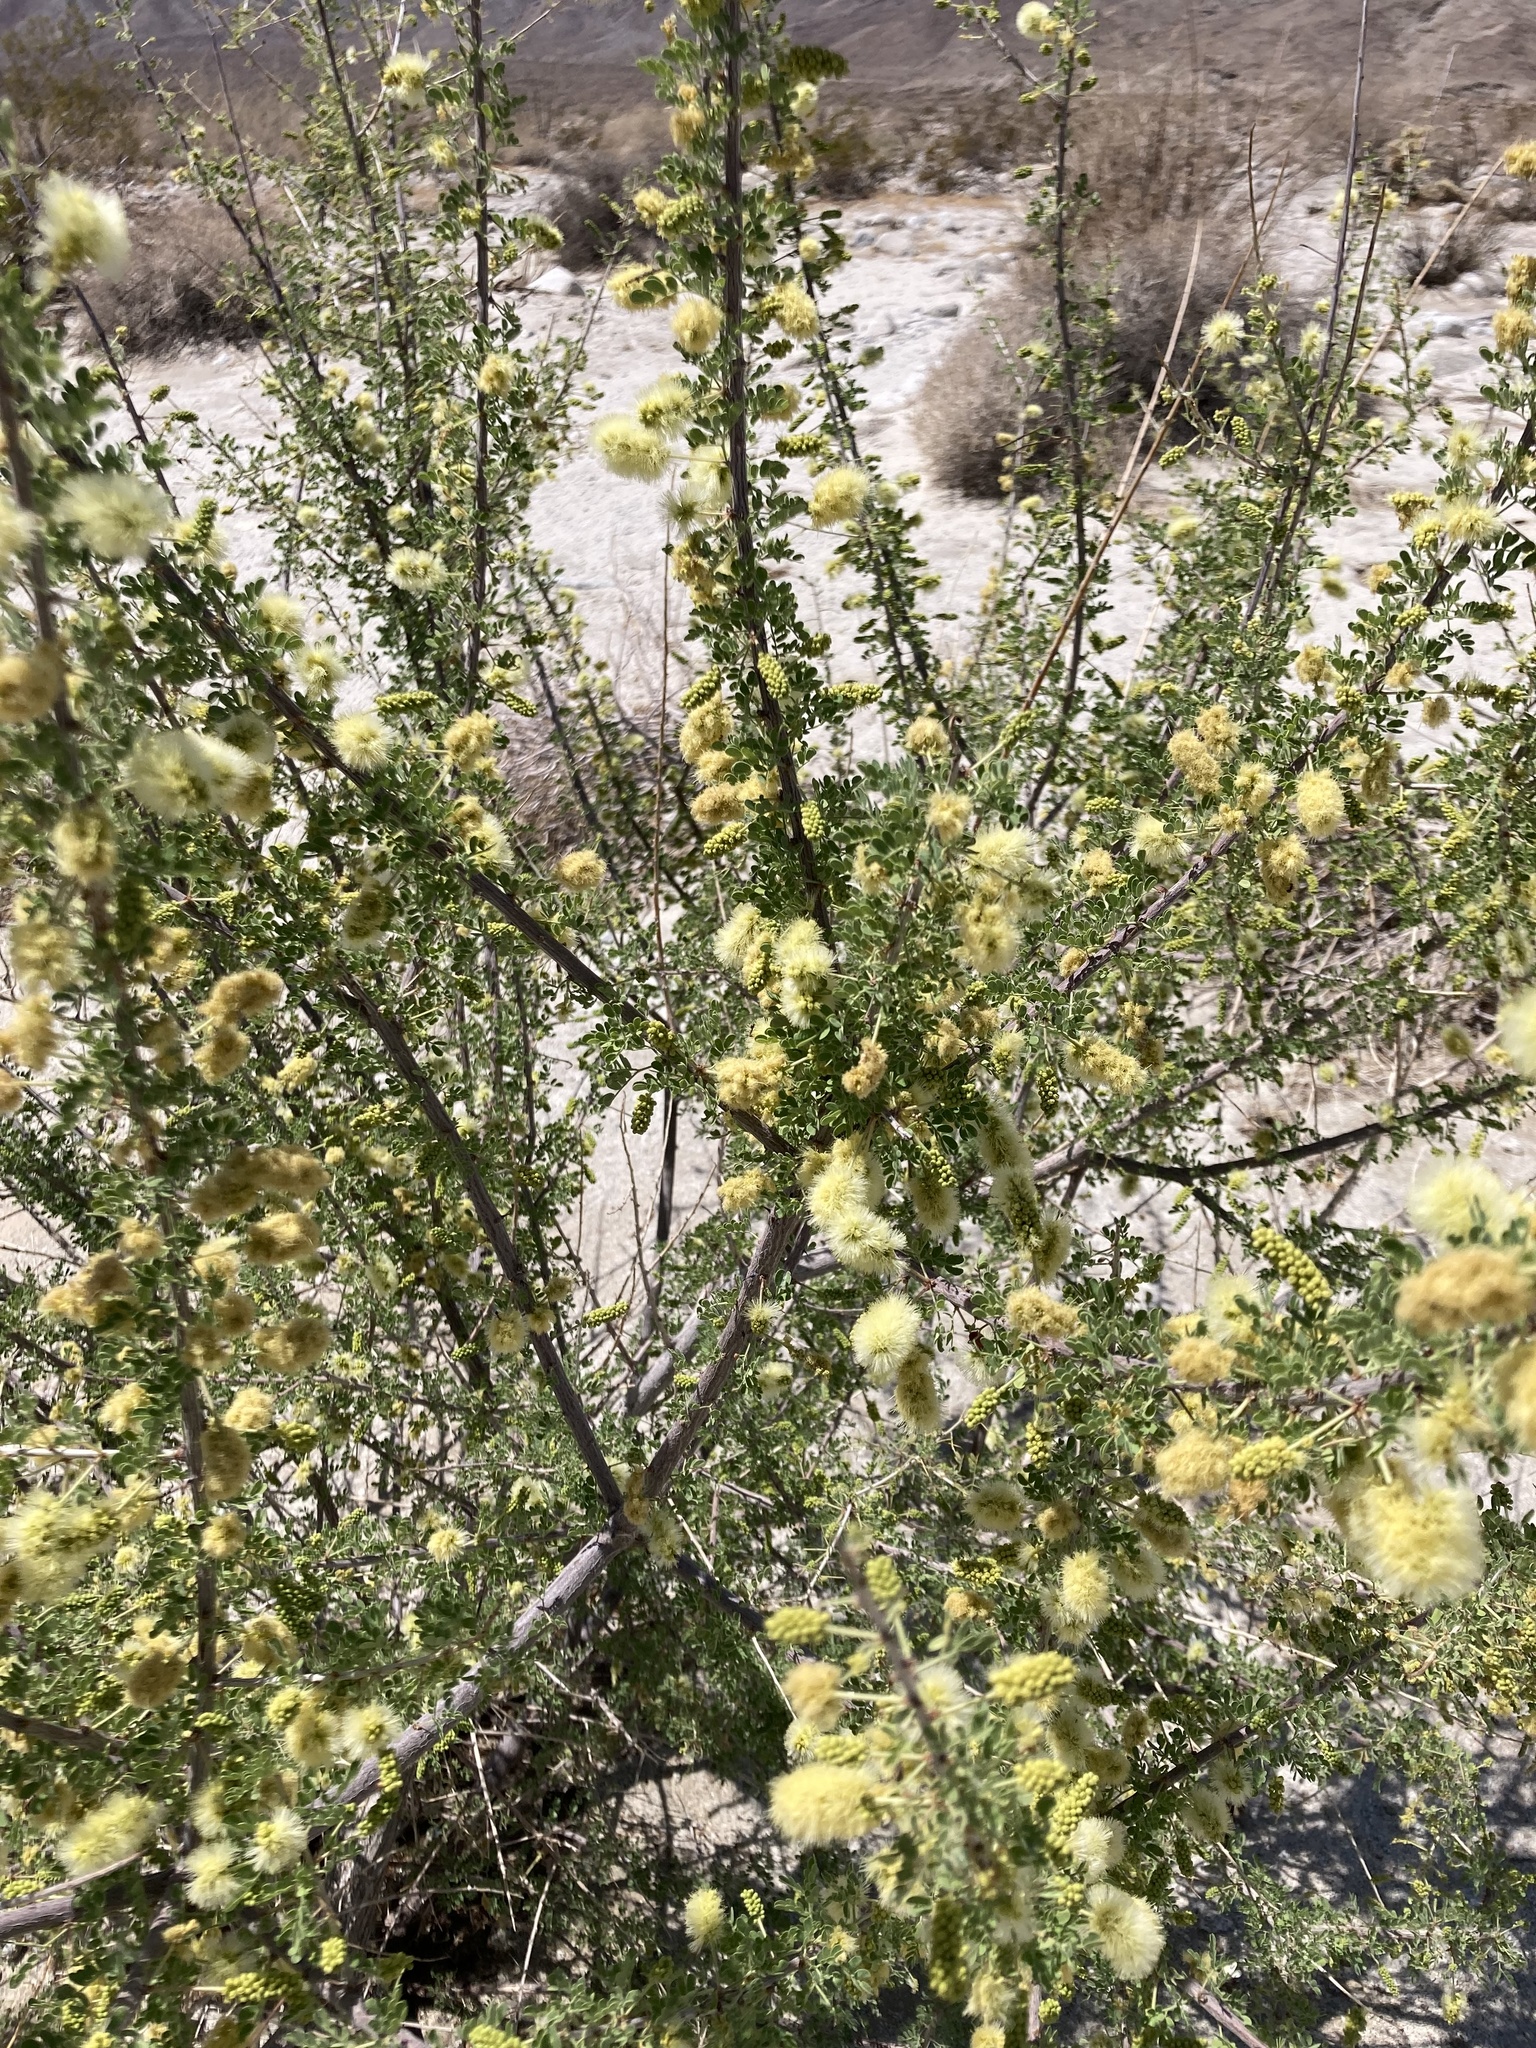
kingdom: Plantae
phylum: Tracheophyta
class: Magnoliopsida
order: Fabales
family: Fabaceae
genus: Senegalia
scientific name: Senegalia greggii
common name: Texas-mimosa
